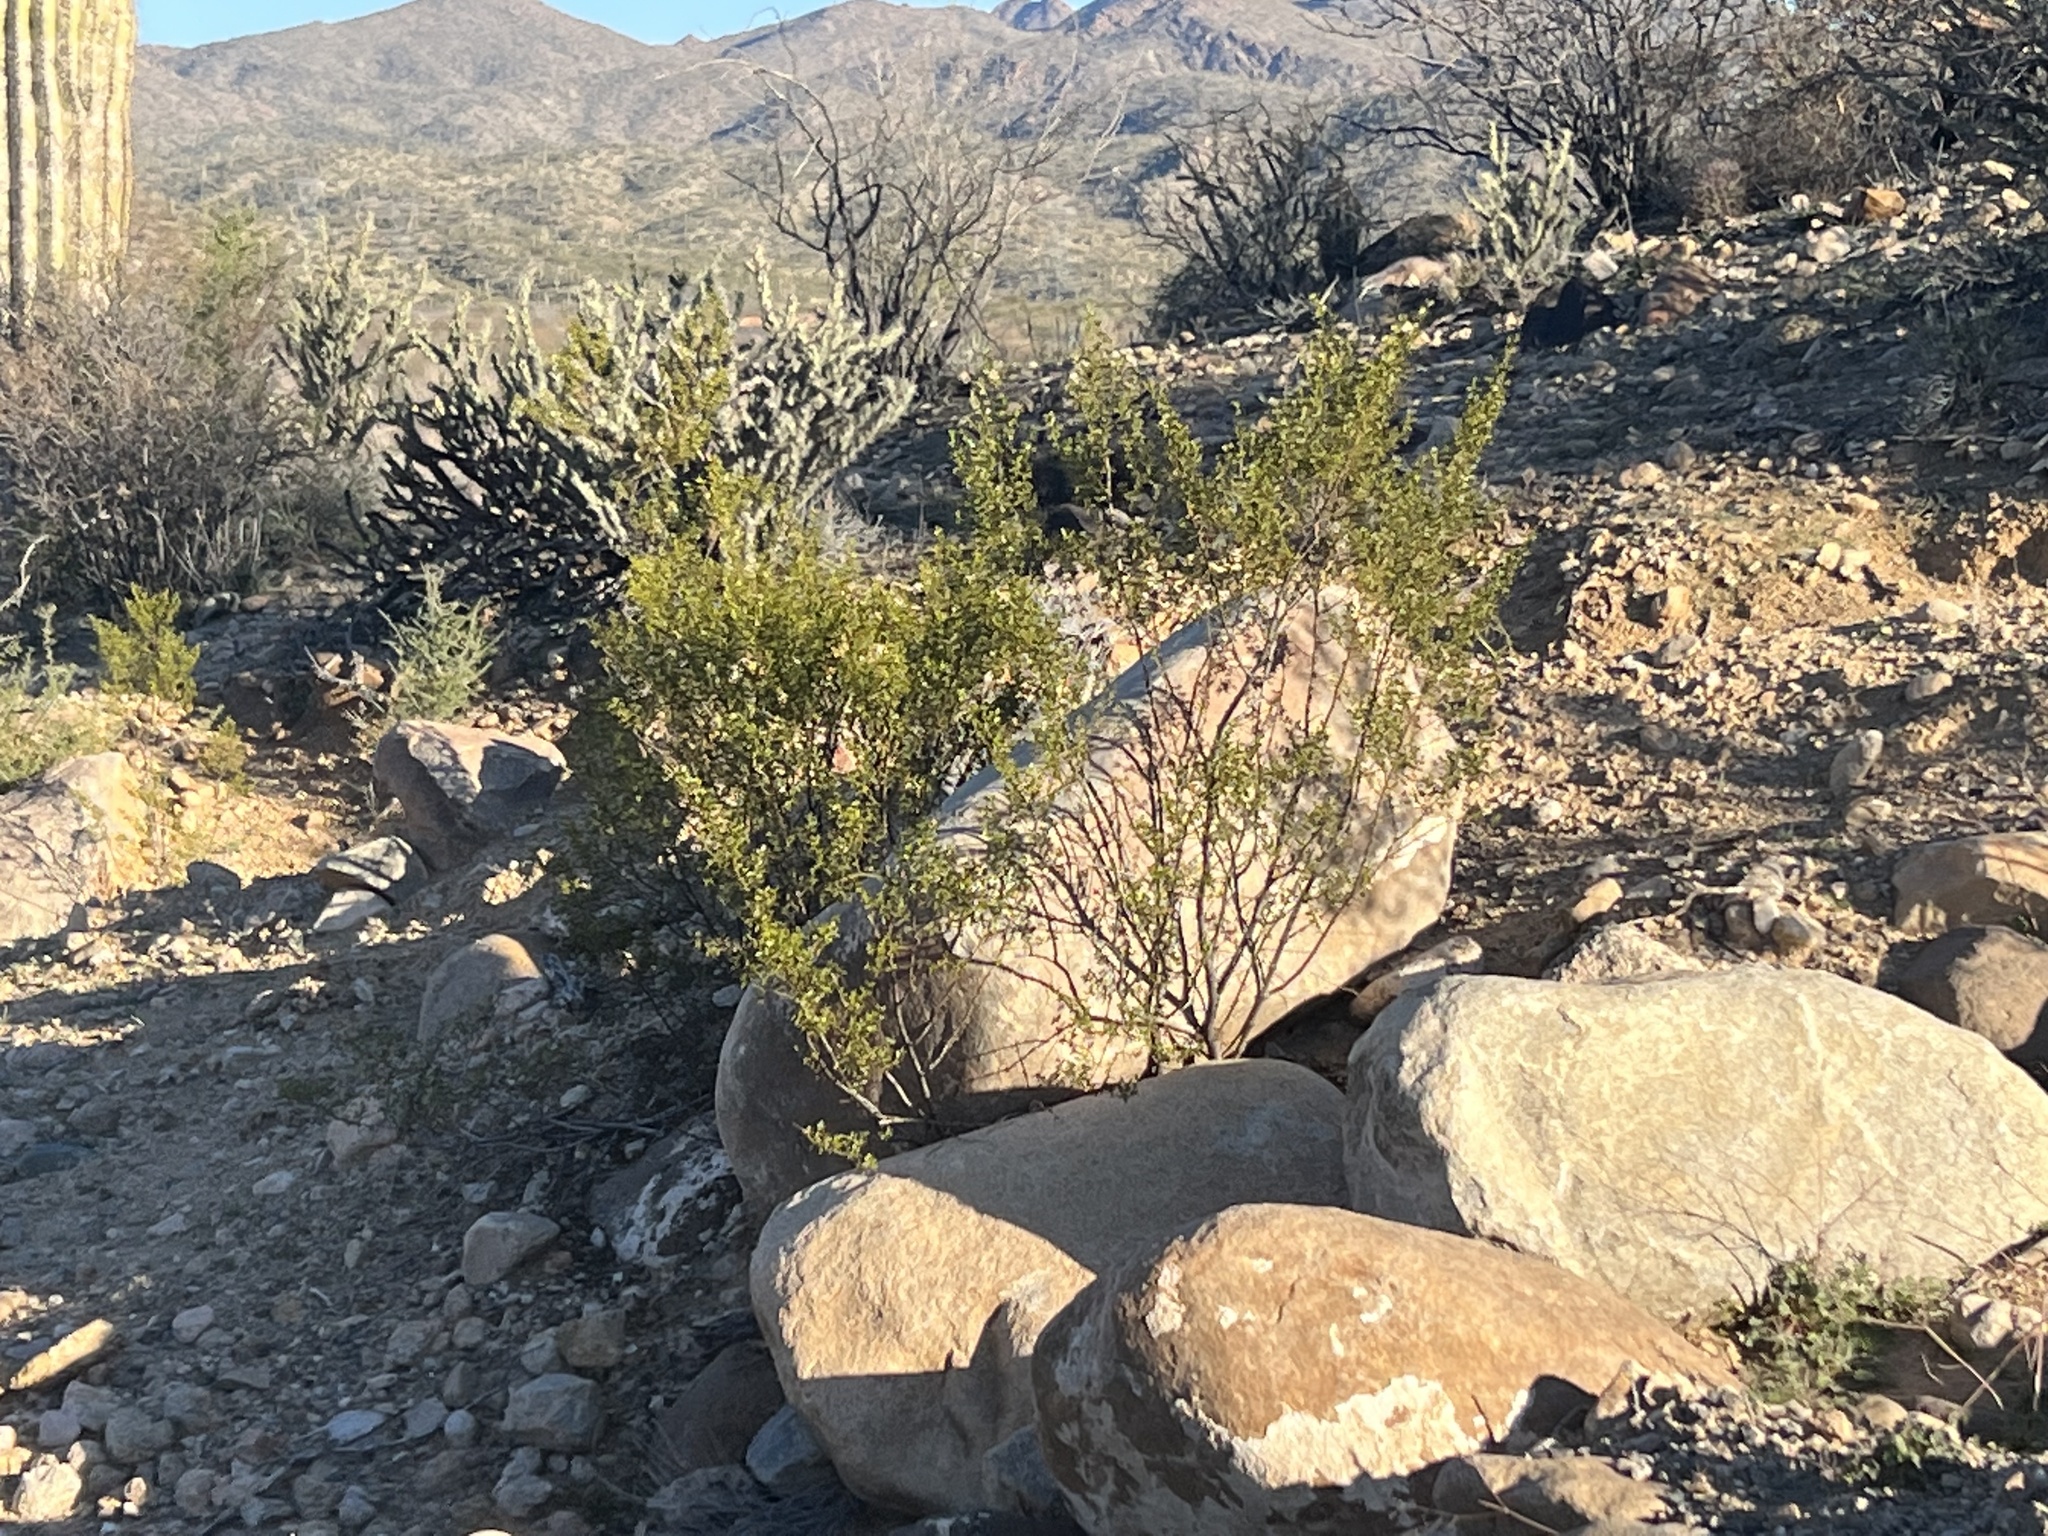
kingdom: Plantae
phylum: Tracheophyta
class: Magnoliopsida
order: Zygophyllales
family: Zygophyllaceae
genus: Larrea
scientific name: Larrea tridentata
